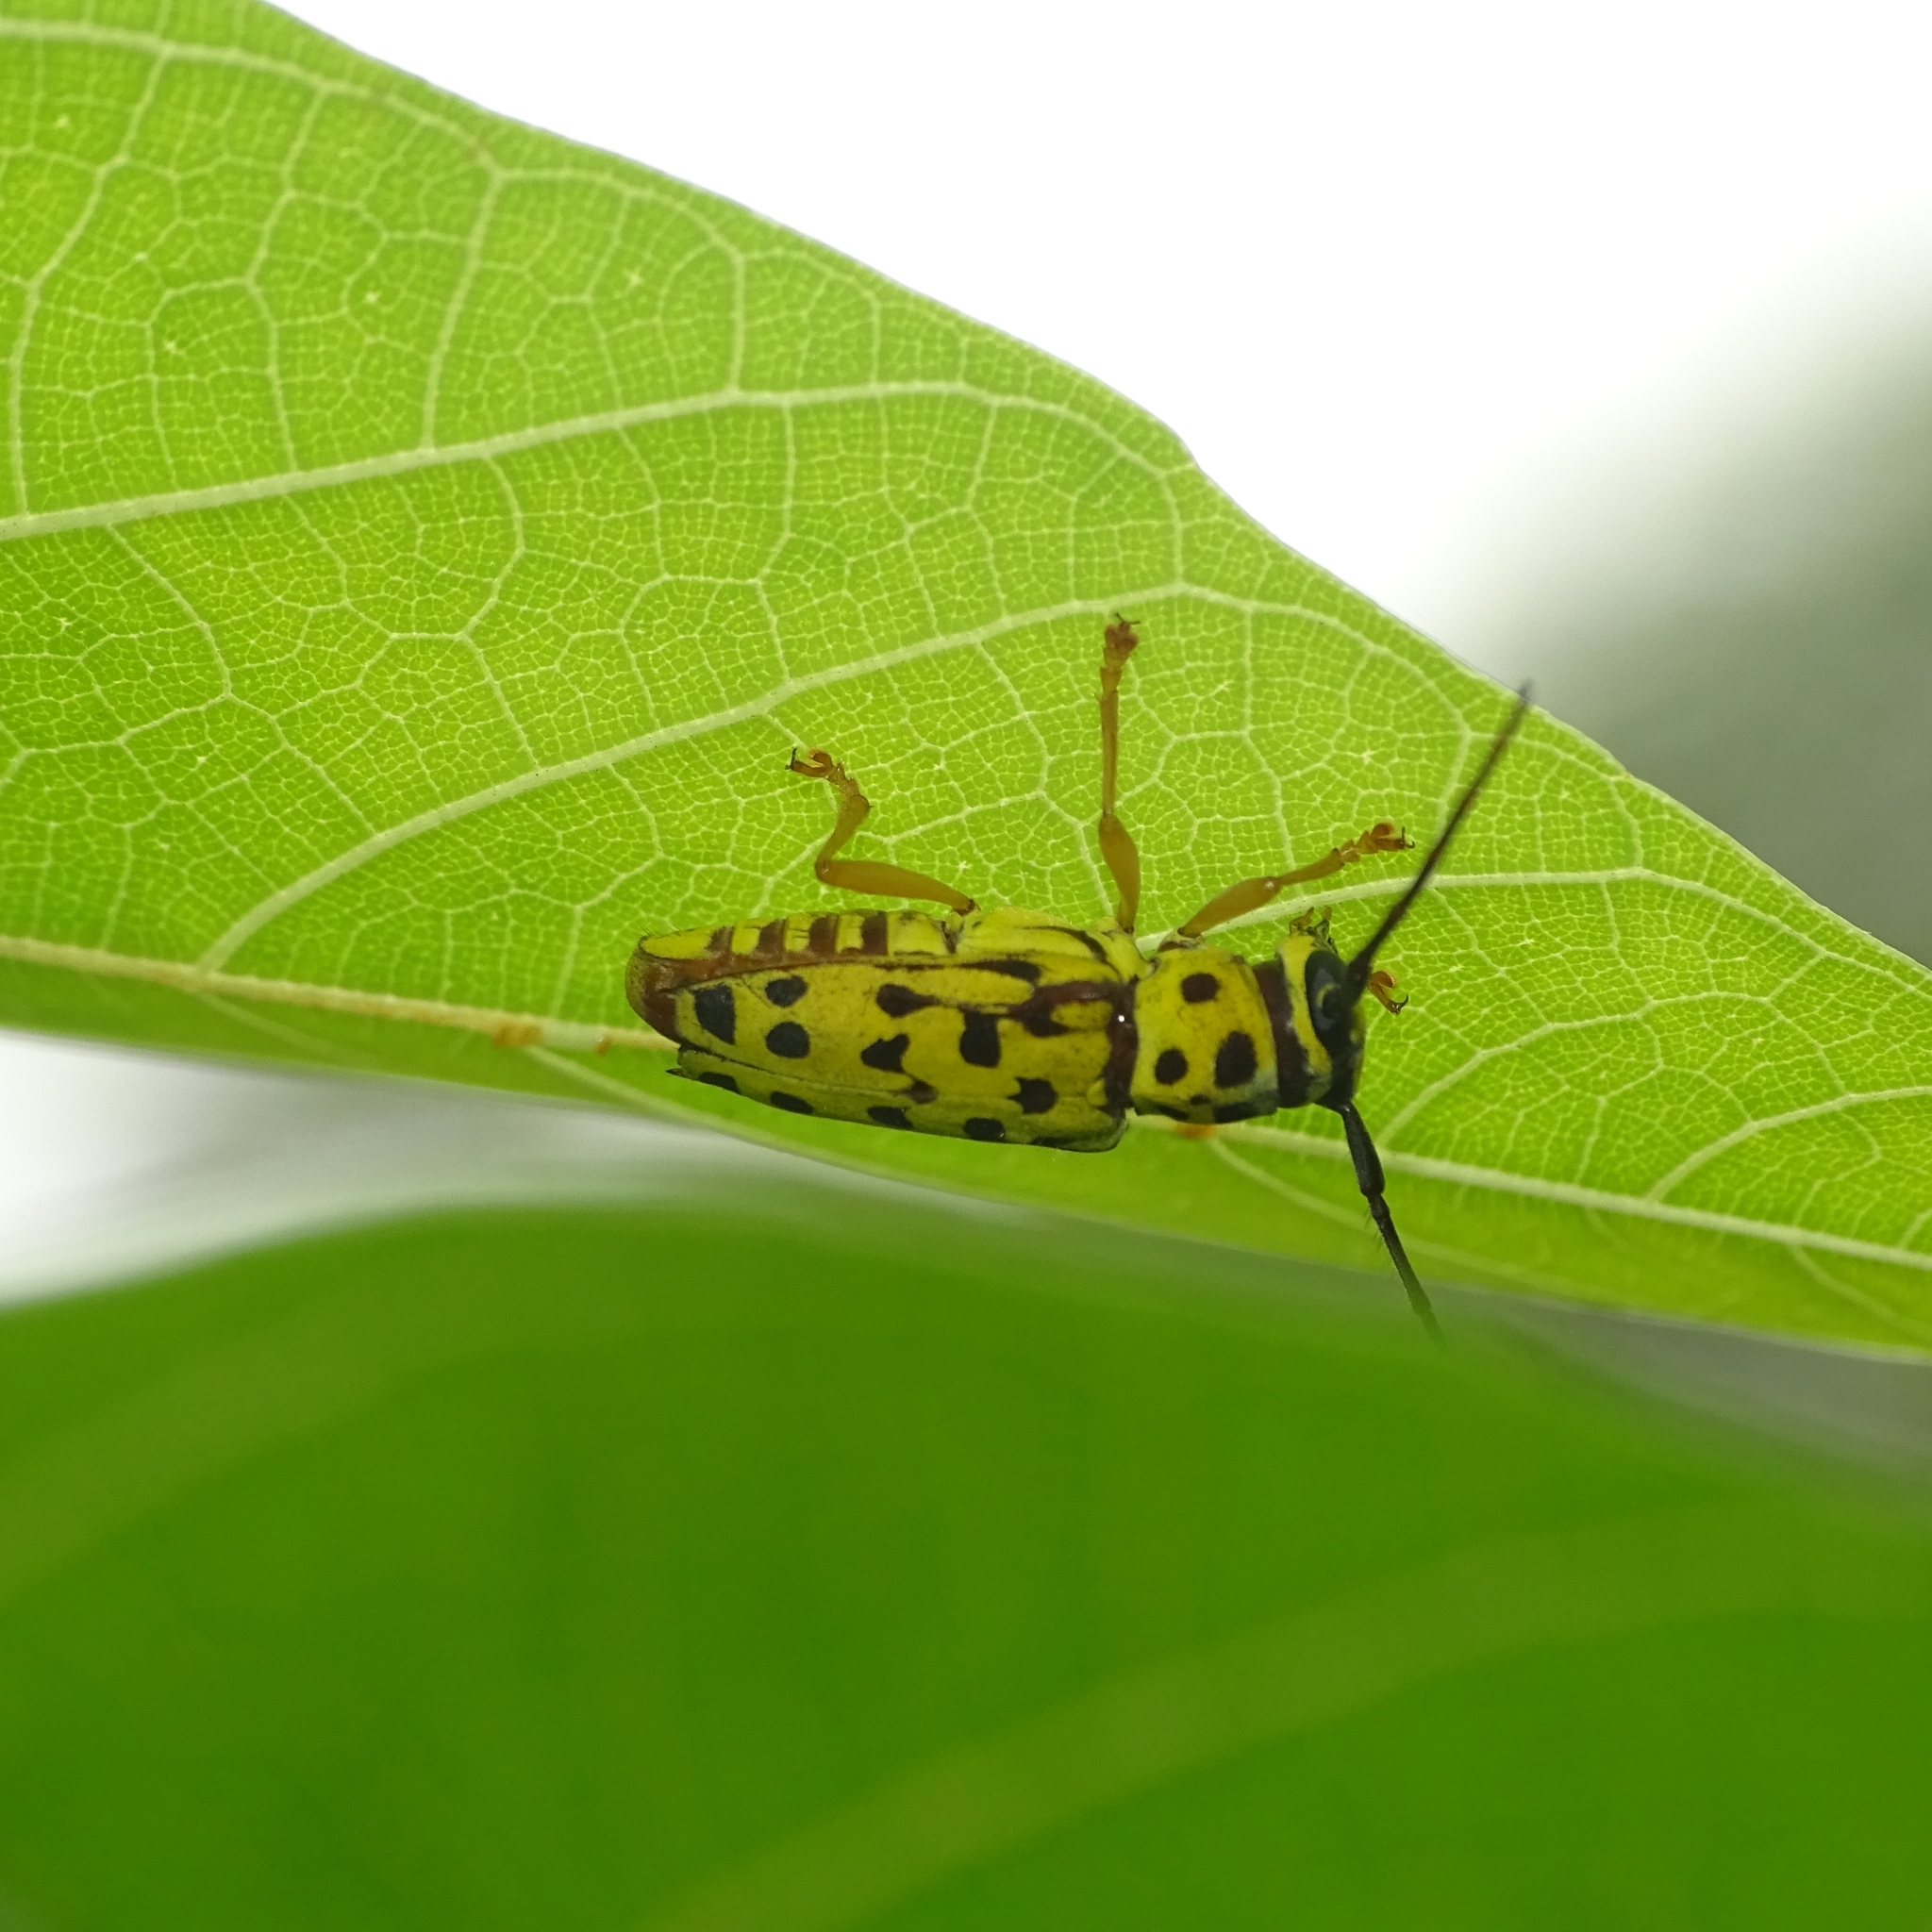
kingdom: Animalia
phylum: Arthropoda
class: Insecta
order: Coleoptera
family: Cerambycidae
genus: Glenea
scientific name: Glenea multiguttata
